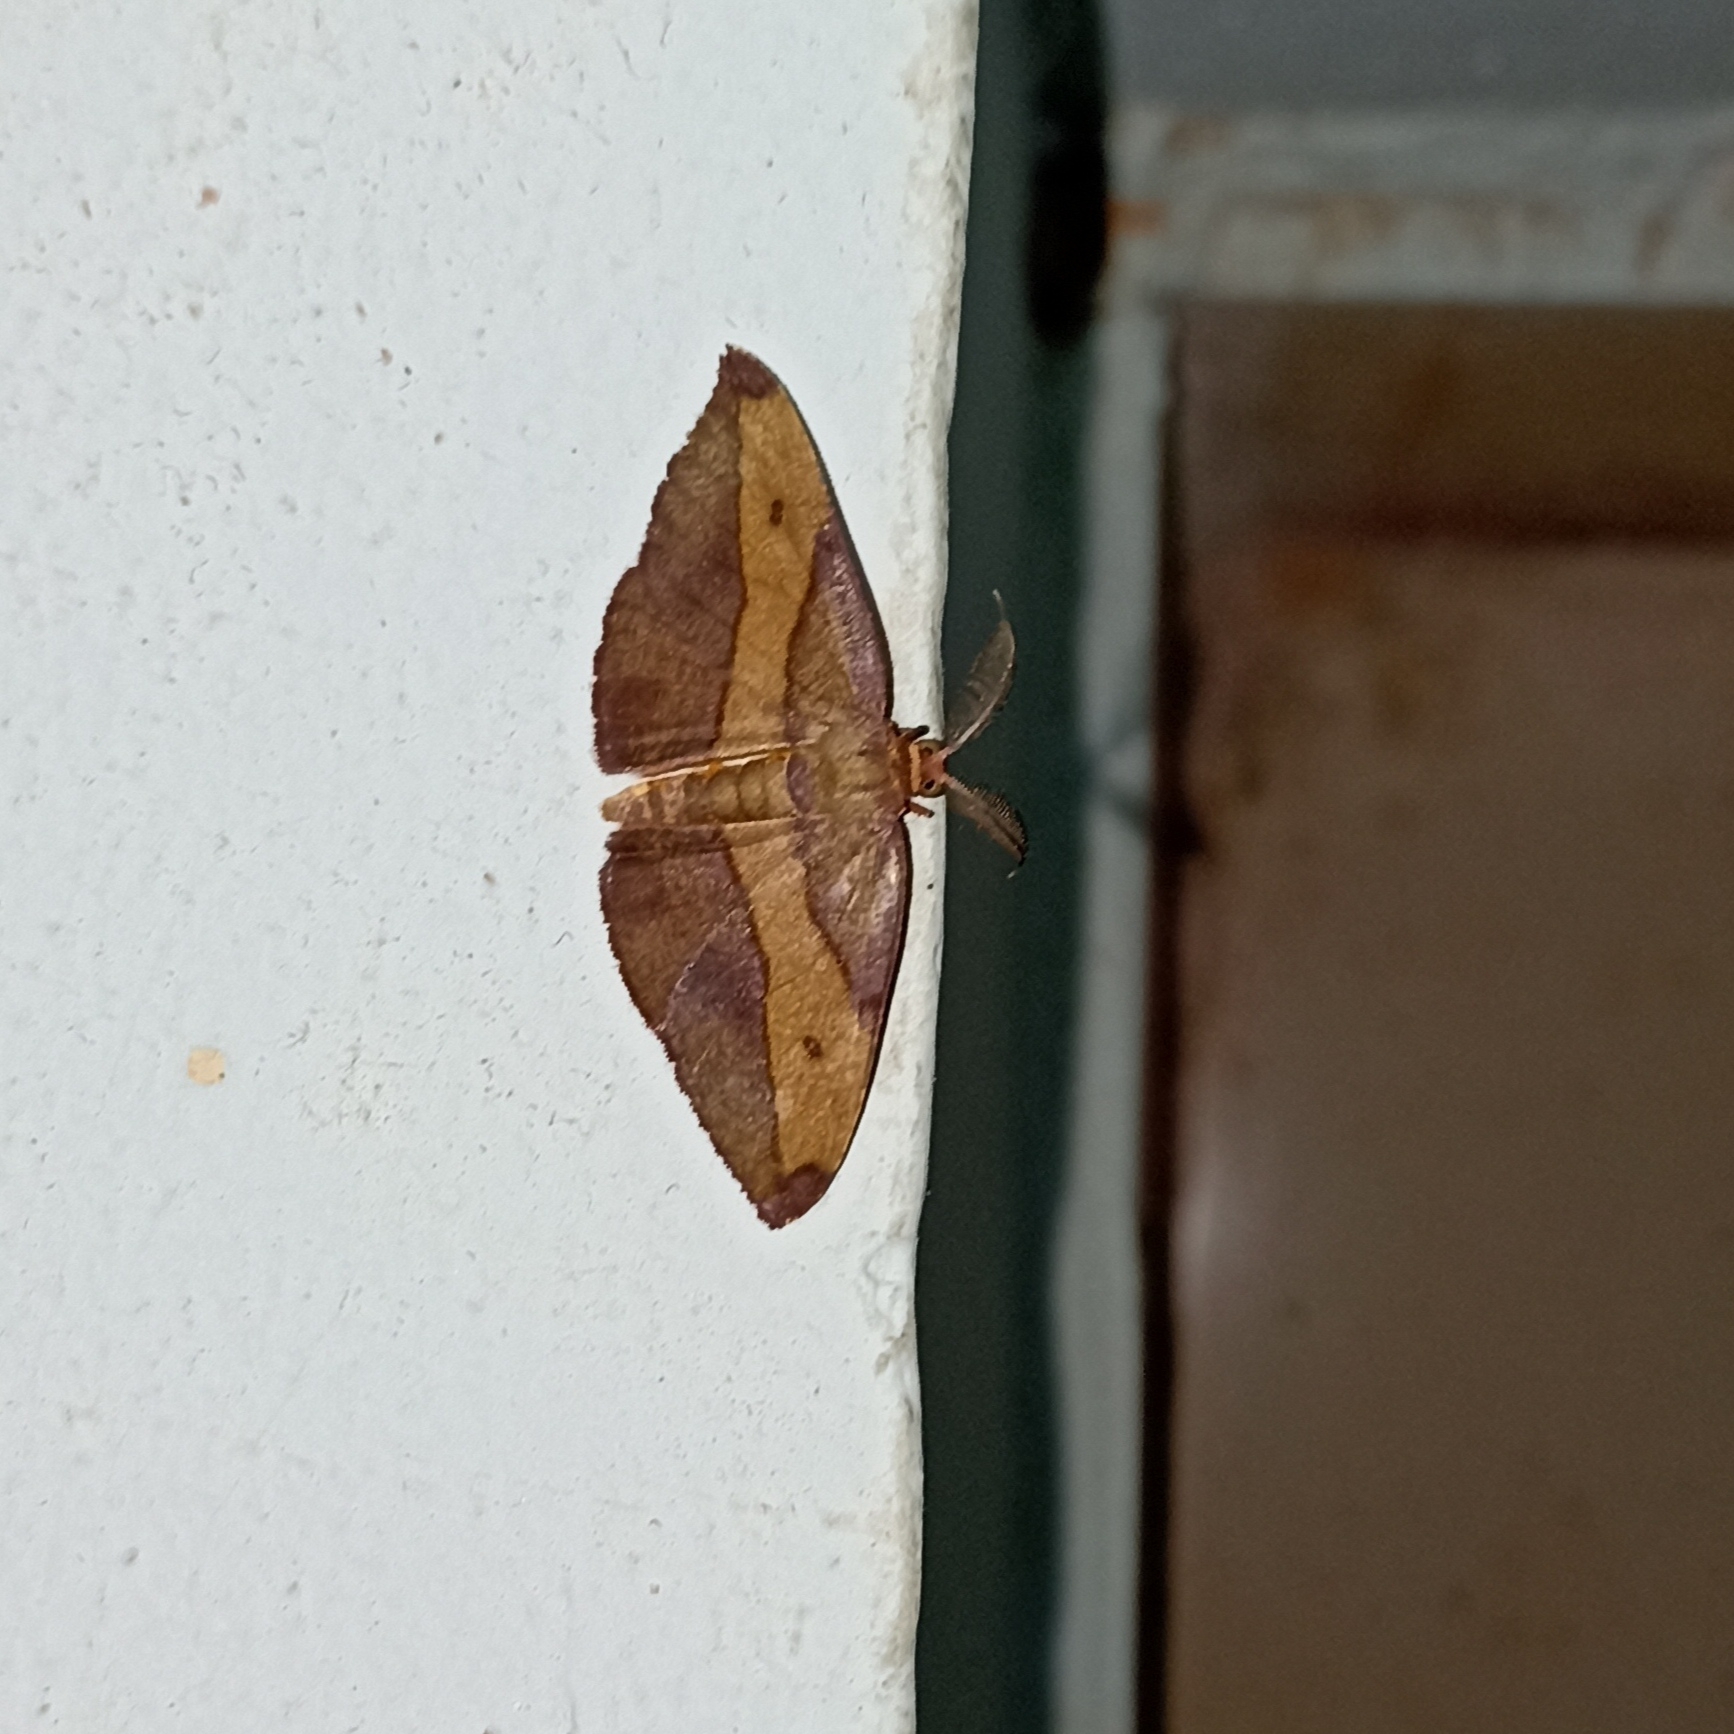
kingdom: Animalia
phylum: Arthropoda
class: Insecta
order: Lepidoptera
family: Geometridae
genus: Hypochrosis
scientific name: Hypochrosis hyadaria
